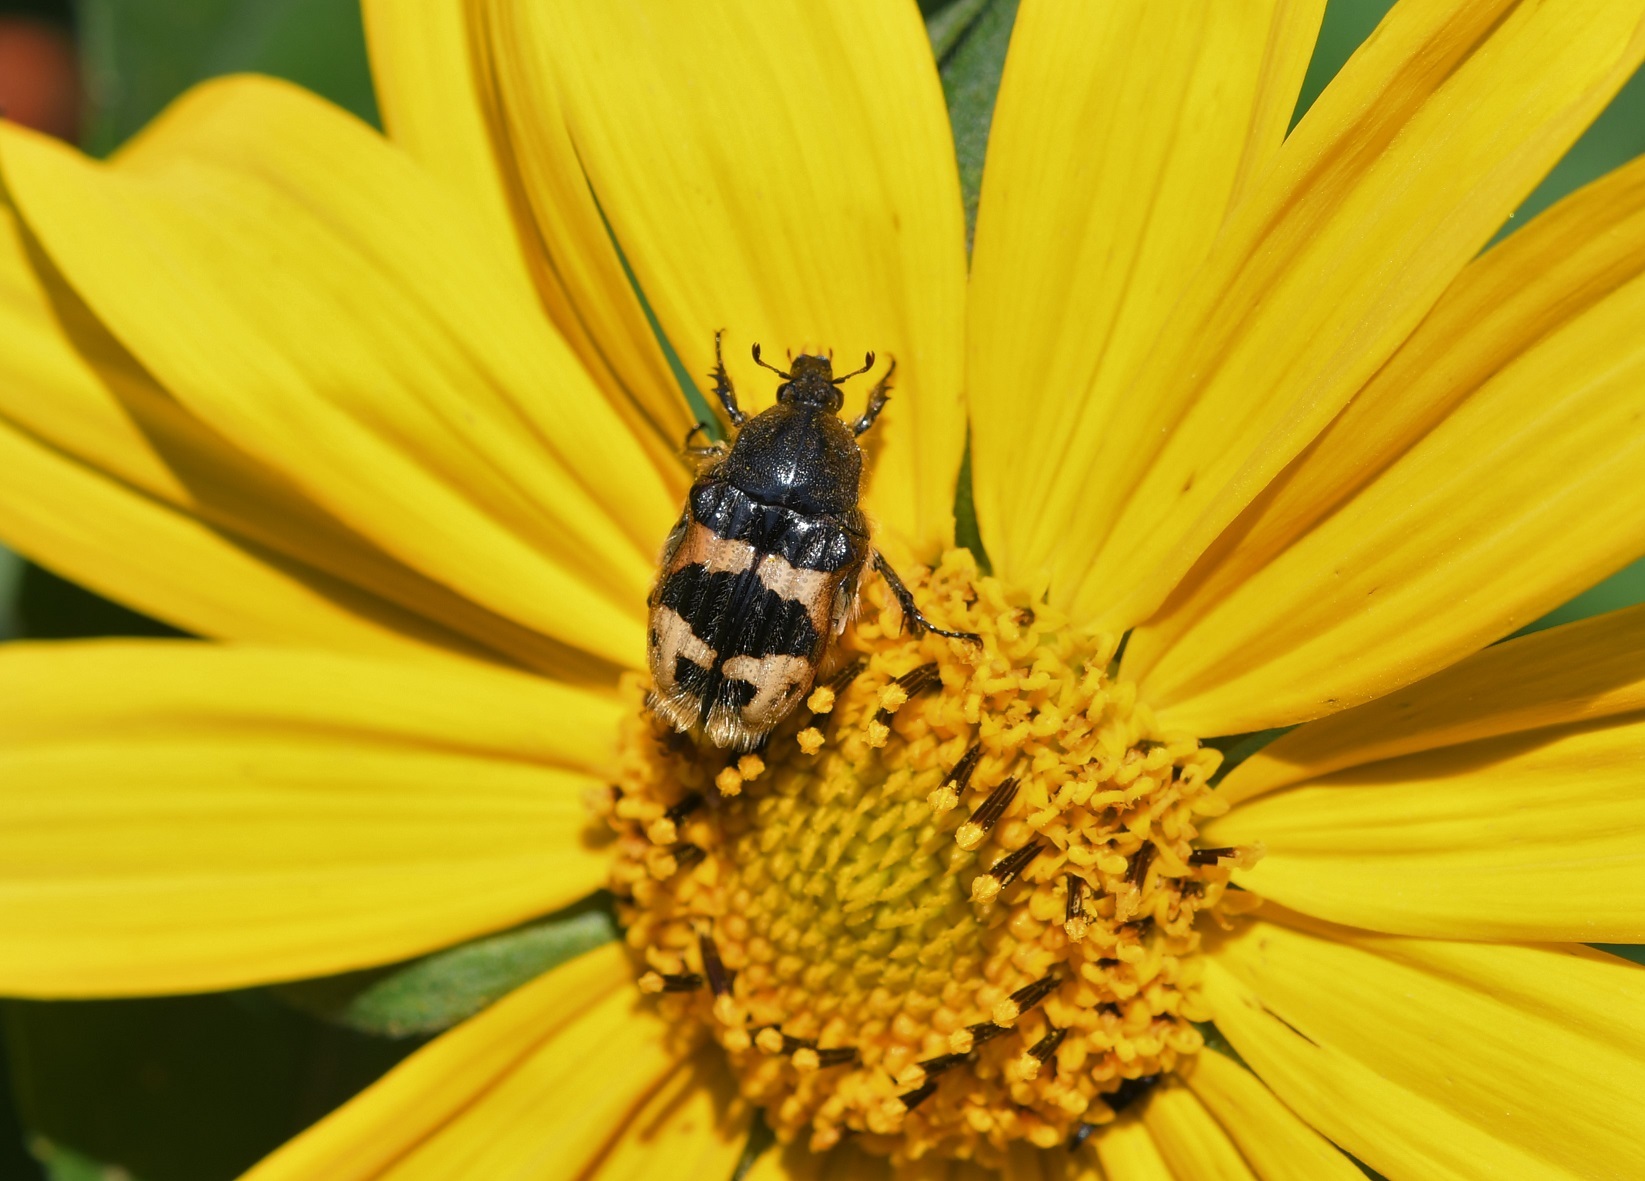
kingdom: Animalia
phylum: Arthropoda
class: Insecta
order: Coleoptera
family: Scarabaeidae
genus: Euphoria
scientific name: Euphoria basalis
